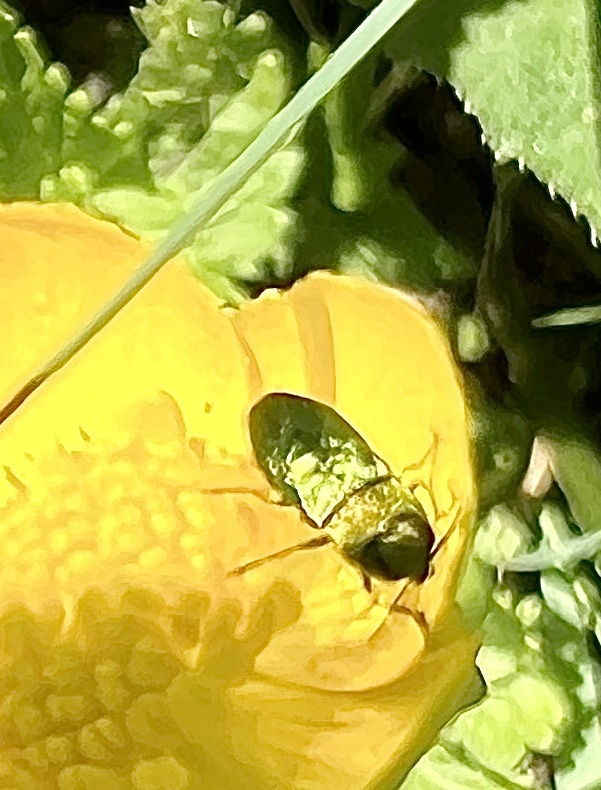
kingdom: Animalia
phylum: Arthropoda
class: Insecta
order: Coleoptera
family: Buprestidae
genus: Anthaxia
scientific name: Anthaxia nitidula
